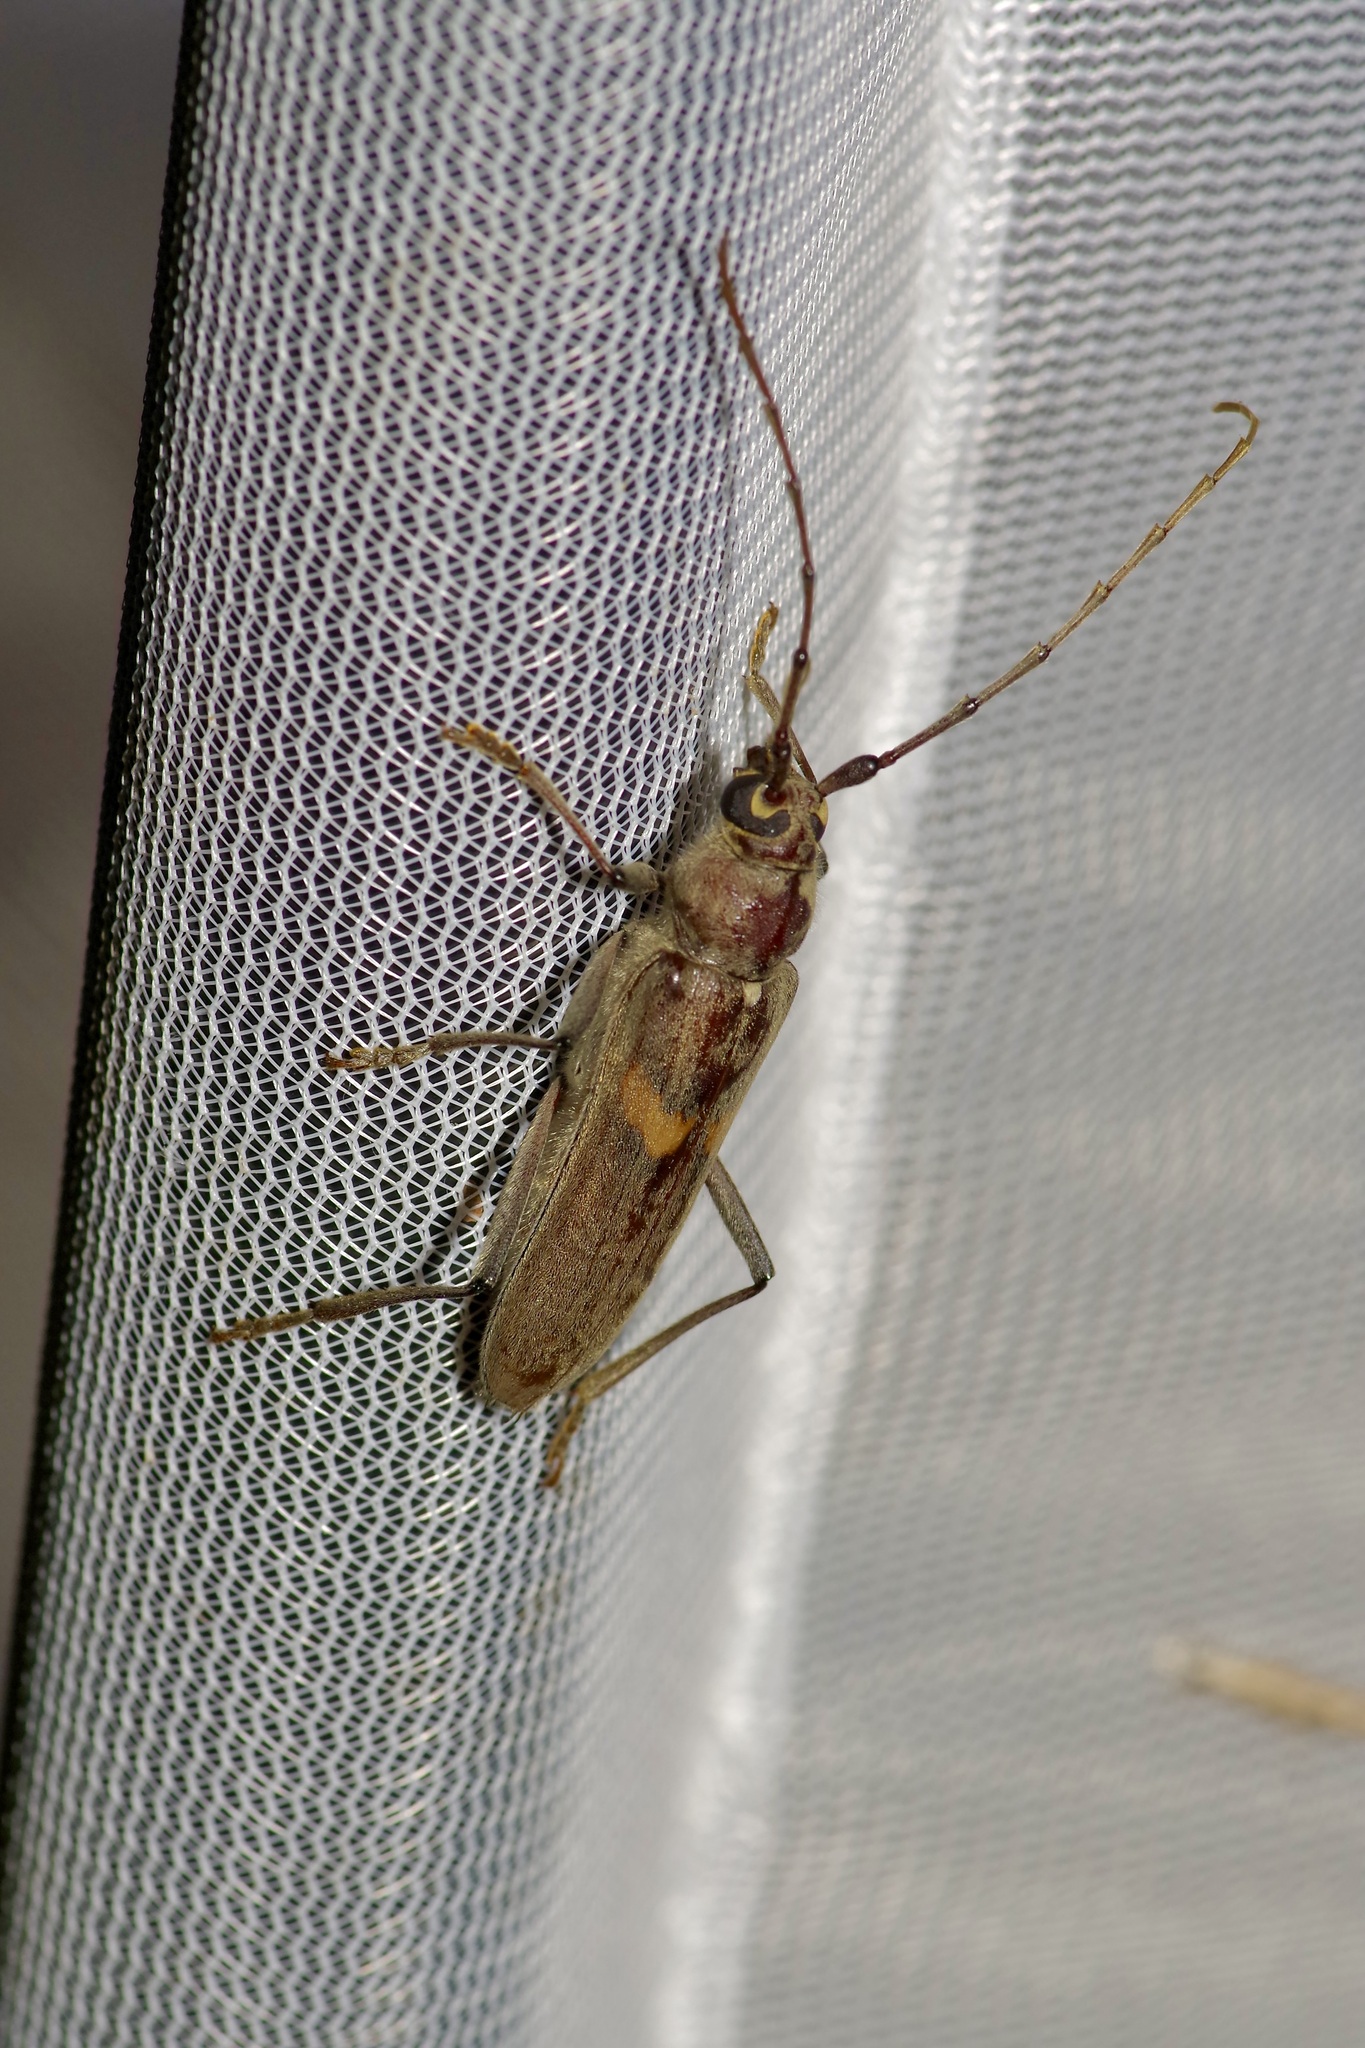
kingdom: Animalia
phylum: Arthropoda
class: Insecta
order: Coleoptera
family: Cerambycidae
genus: Knulliana
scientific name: Knulliana cincta
